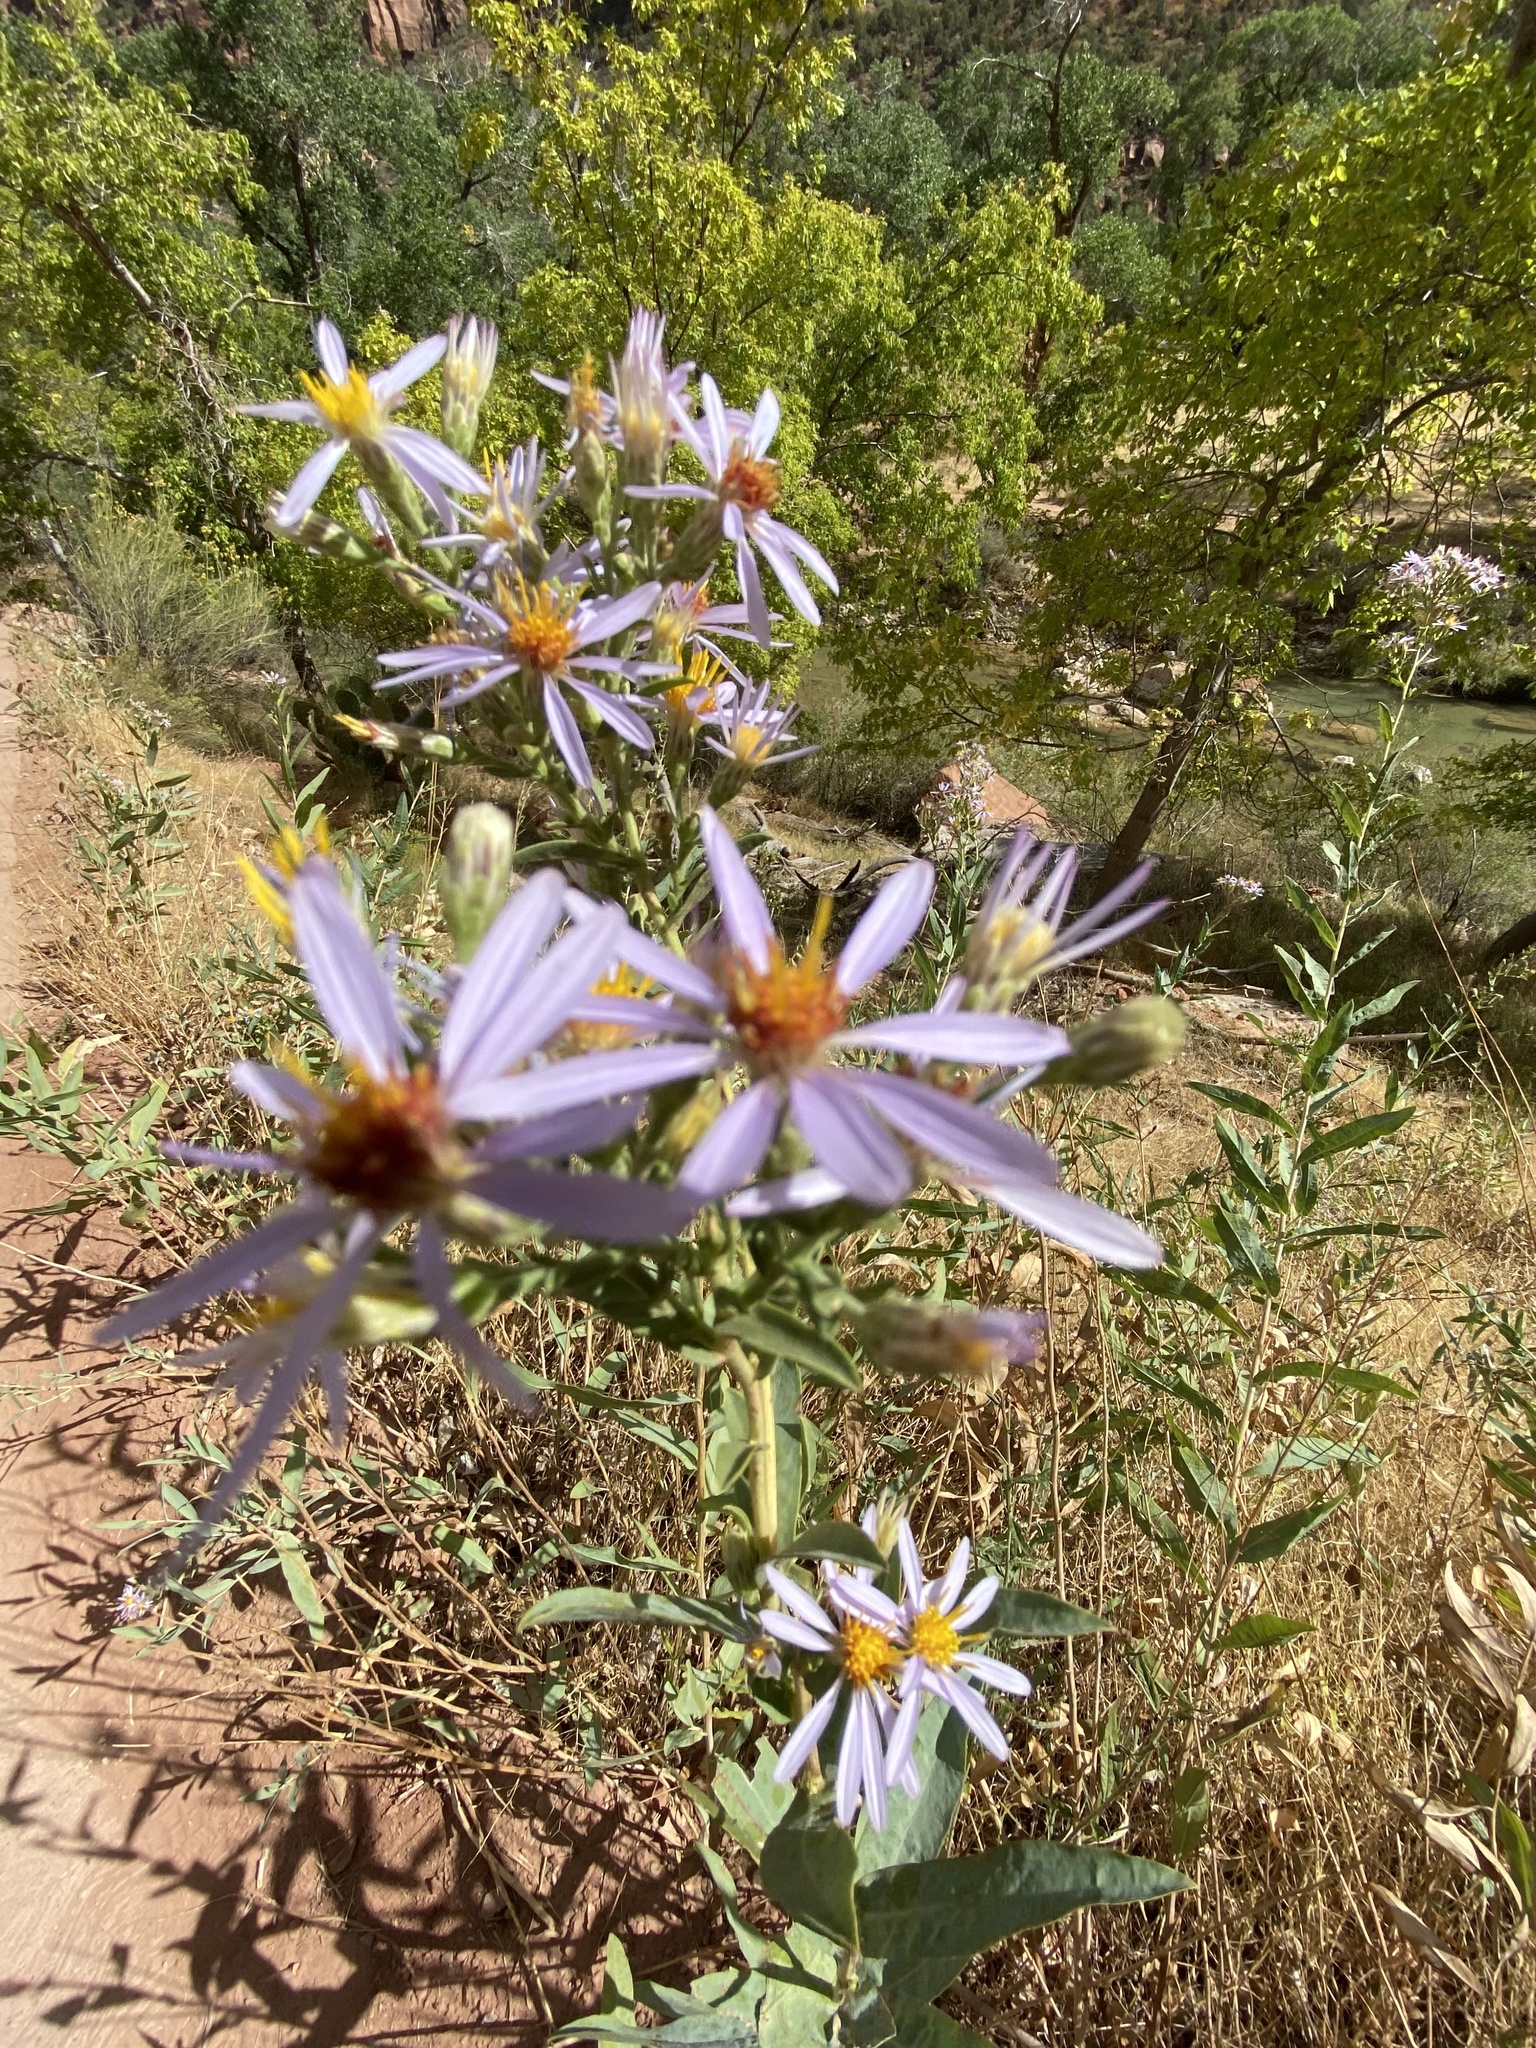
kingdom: Plantae
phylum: Tracheophyta
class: Magnoliopsida
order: Asterales
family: Asteraceae
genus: Eurybia
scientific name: Eurybia glauca
